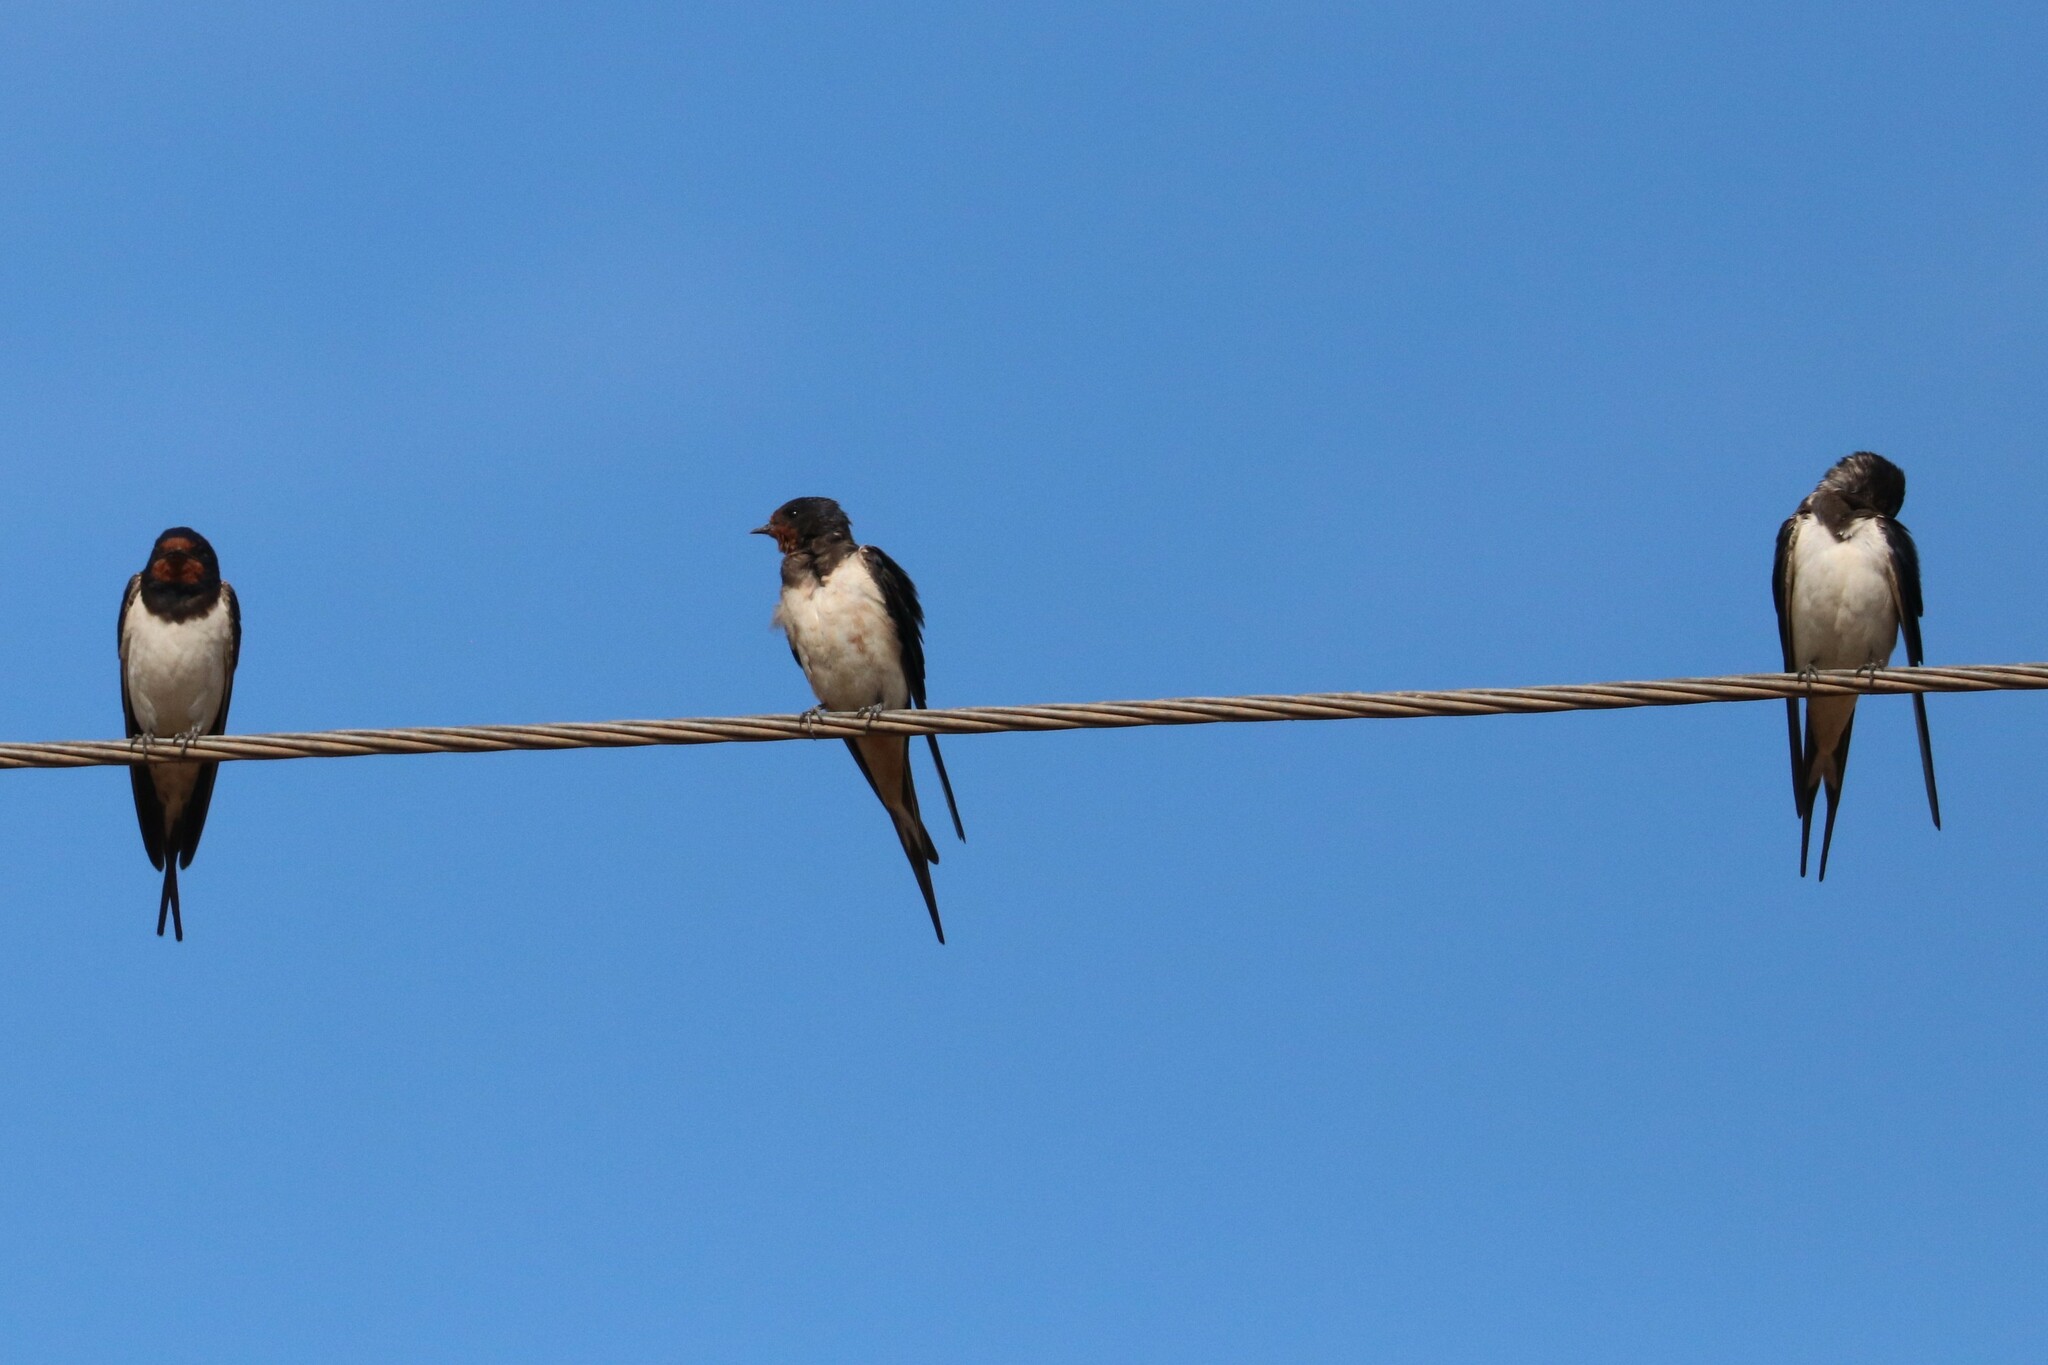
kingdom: Animalia
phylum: Chordata
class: Aves
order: Passeriformes
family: Hirundinidae
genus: Hirundo
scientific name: Hirundo rustica
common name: Barn swallow
